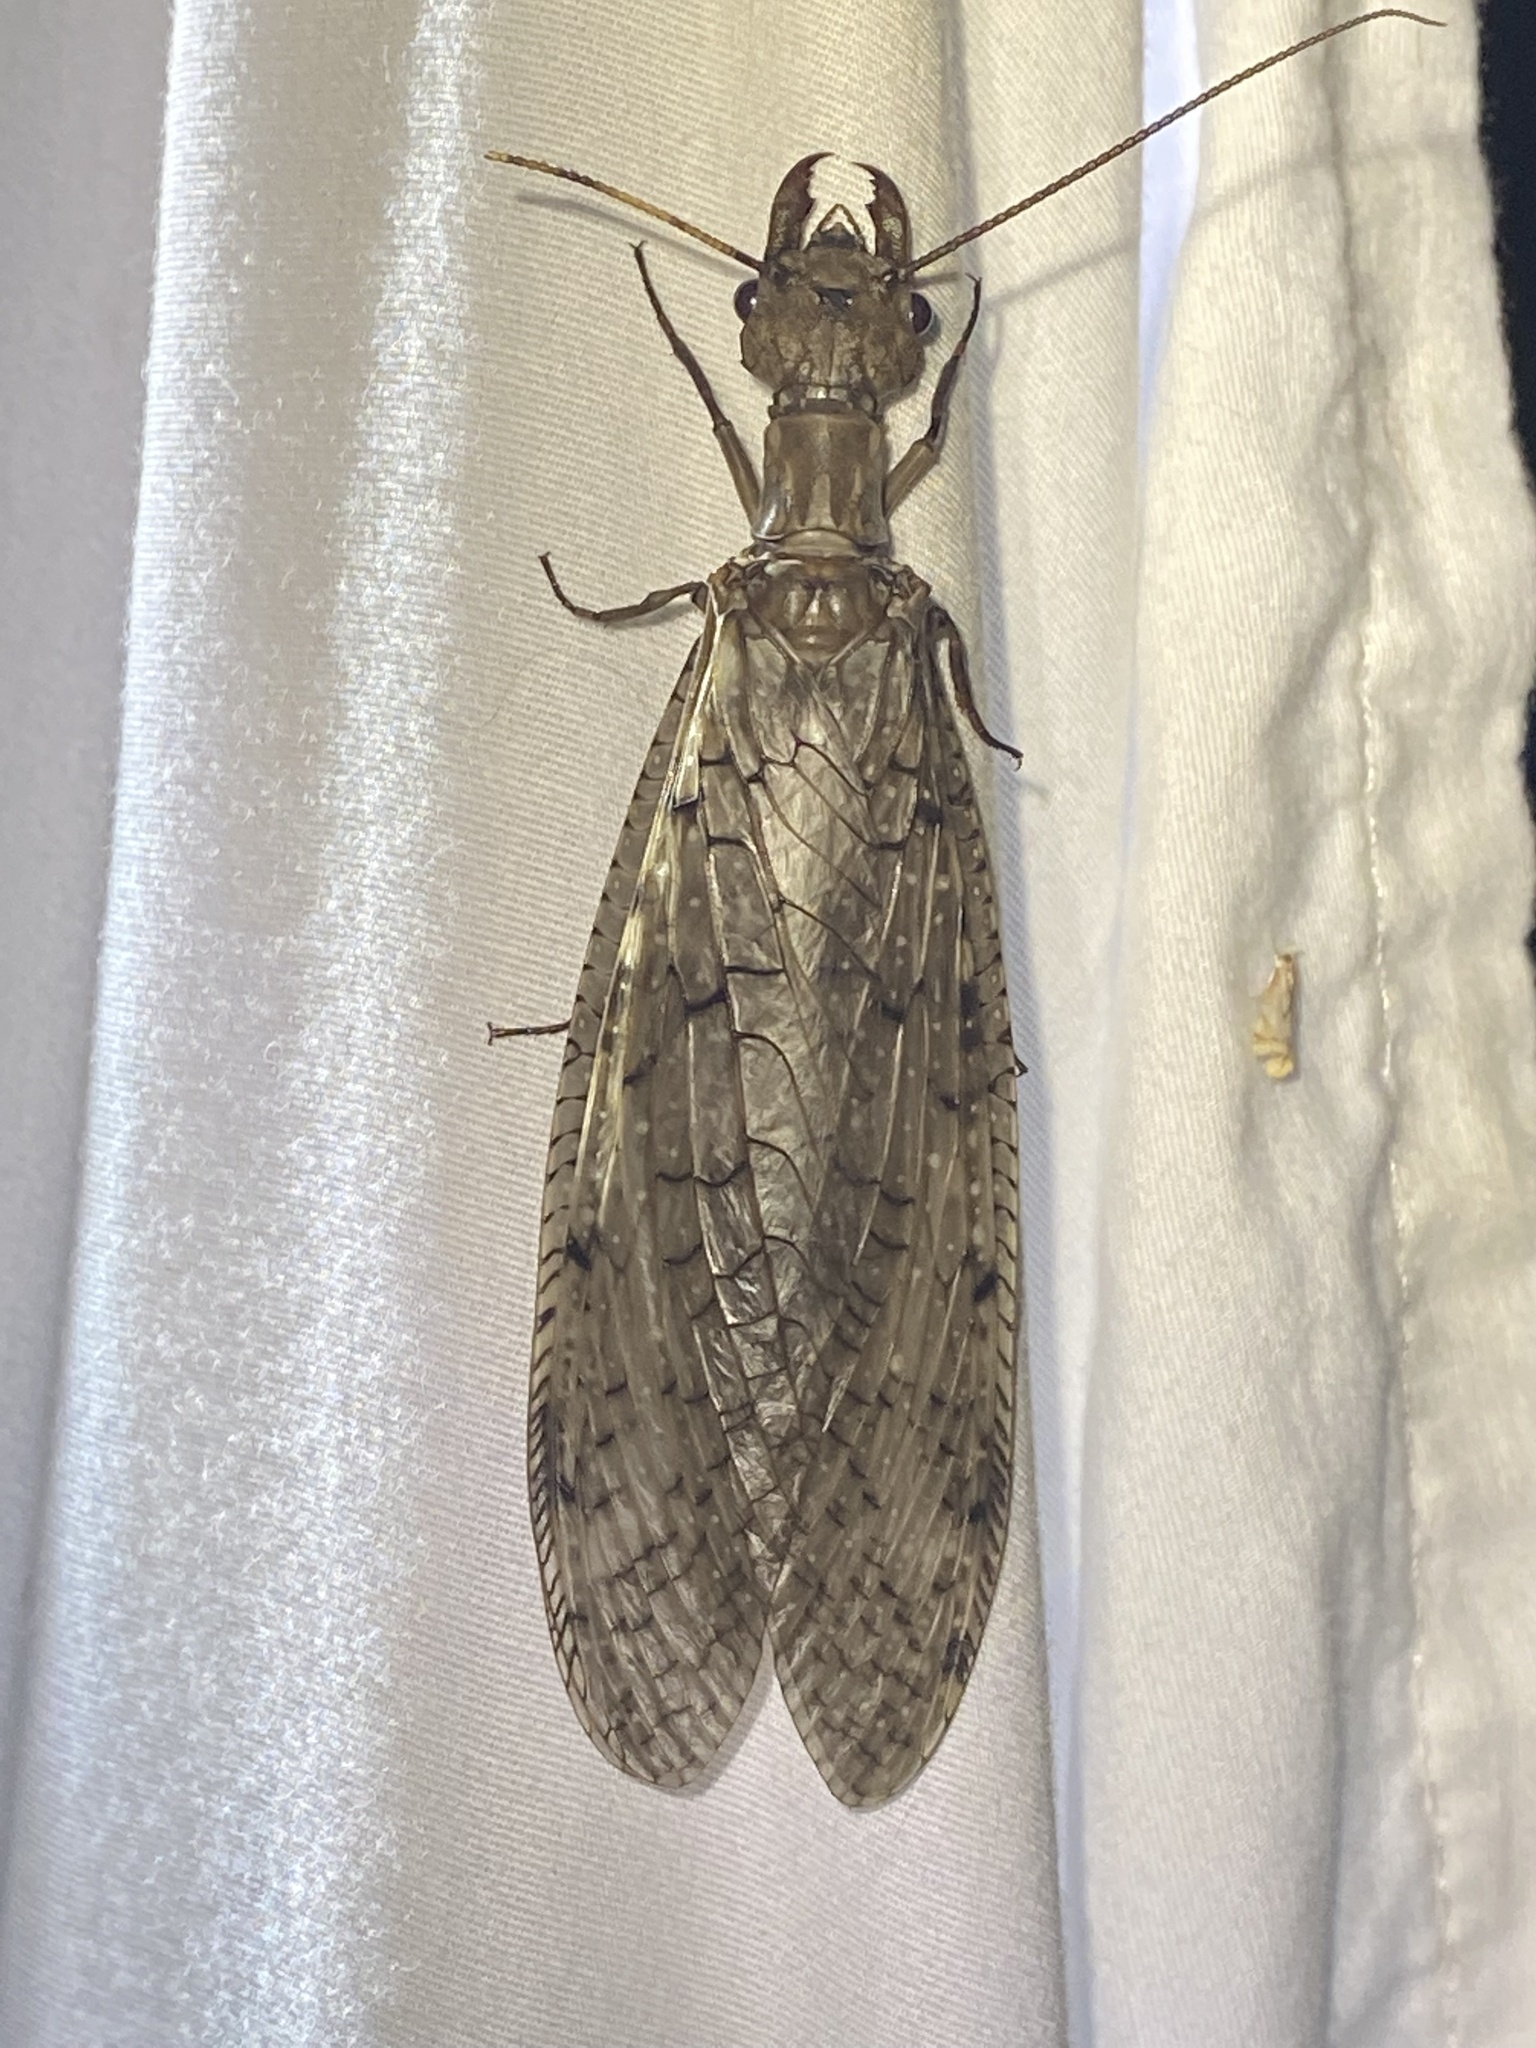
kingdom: Animalia
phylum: Arthropoda
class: Insecta
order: Megaloptera
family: Corydalidae
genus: Corydalus
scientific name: Corydalus cornutus
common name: Dobsonfly
